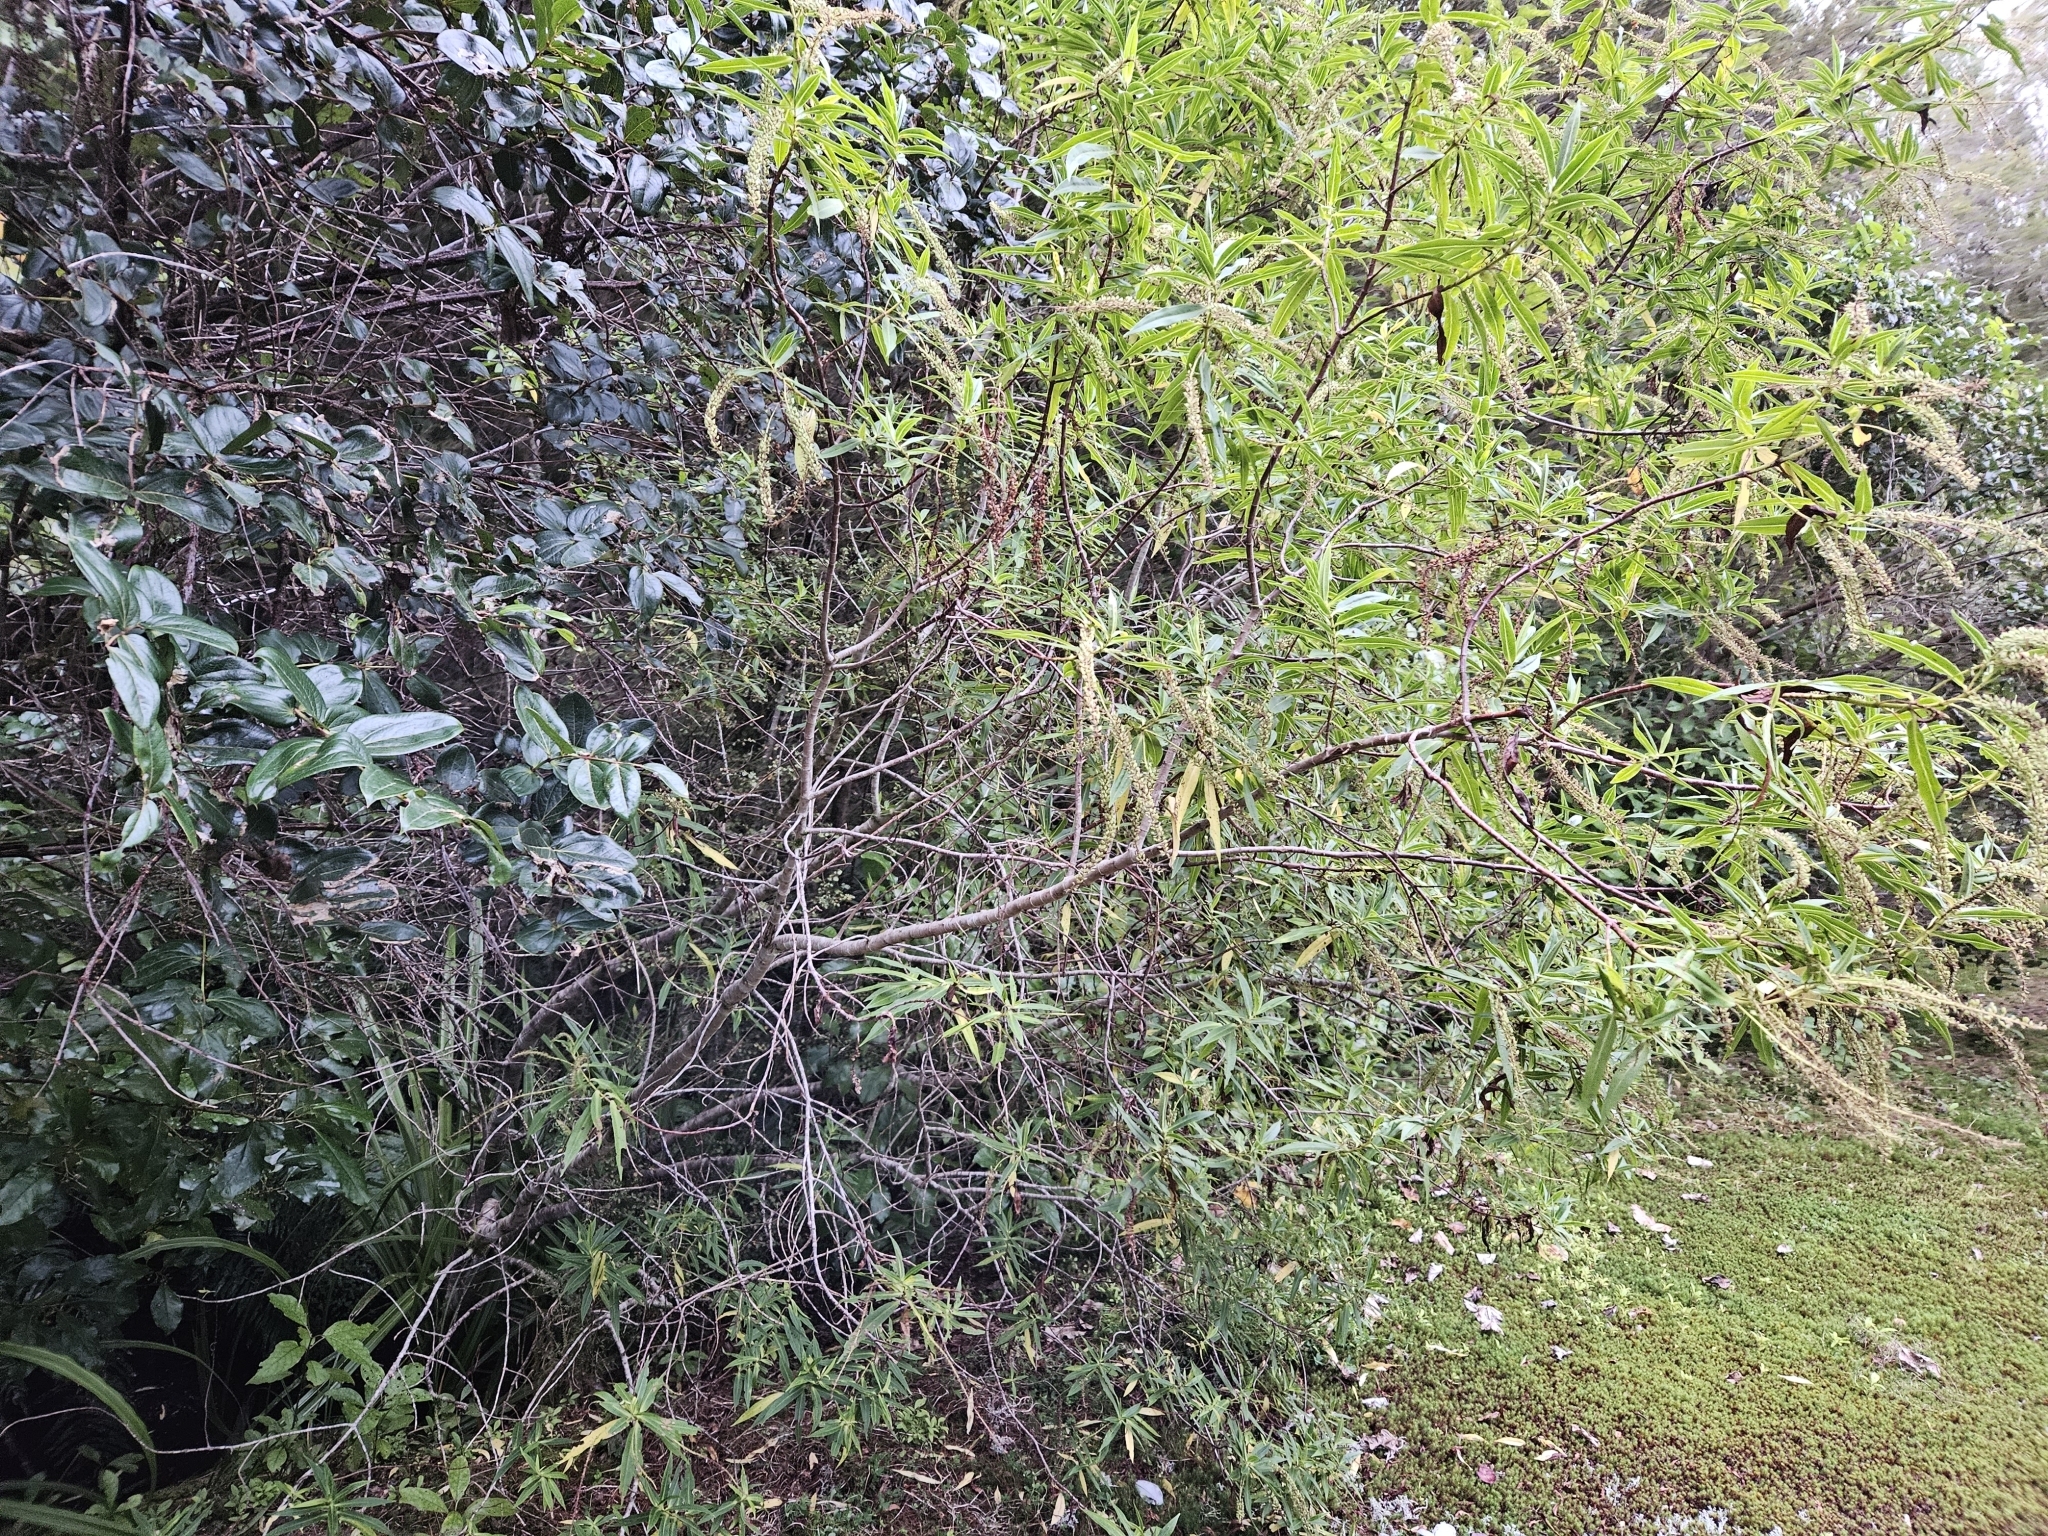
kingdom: Plantae
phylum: Tracheophyta
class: Magnoliopsida
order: Lamiales
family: Plantaginaceae
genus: Veronica
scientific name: Veronica salicifolia
